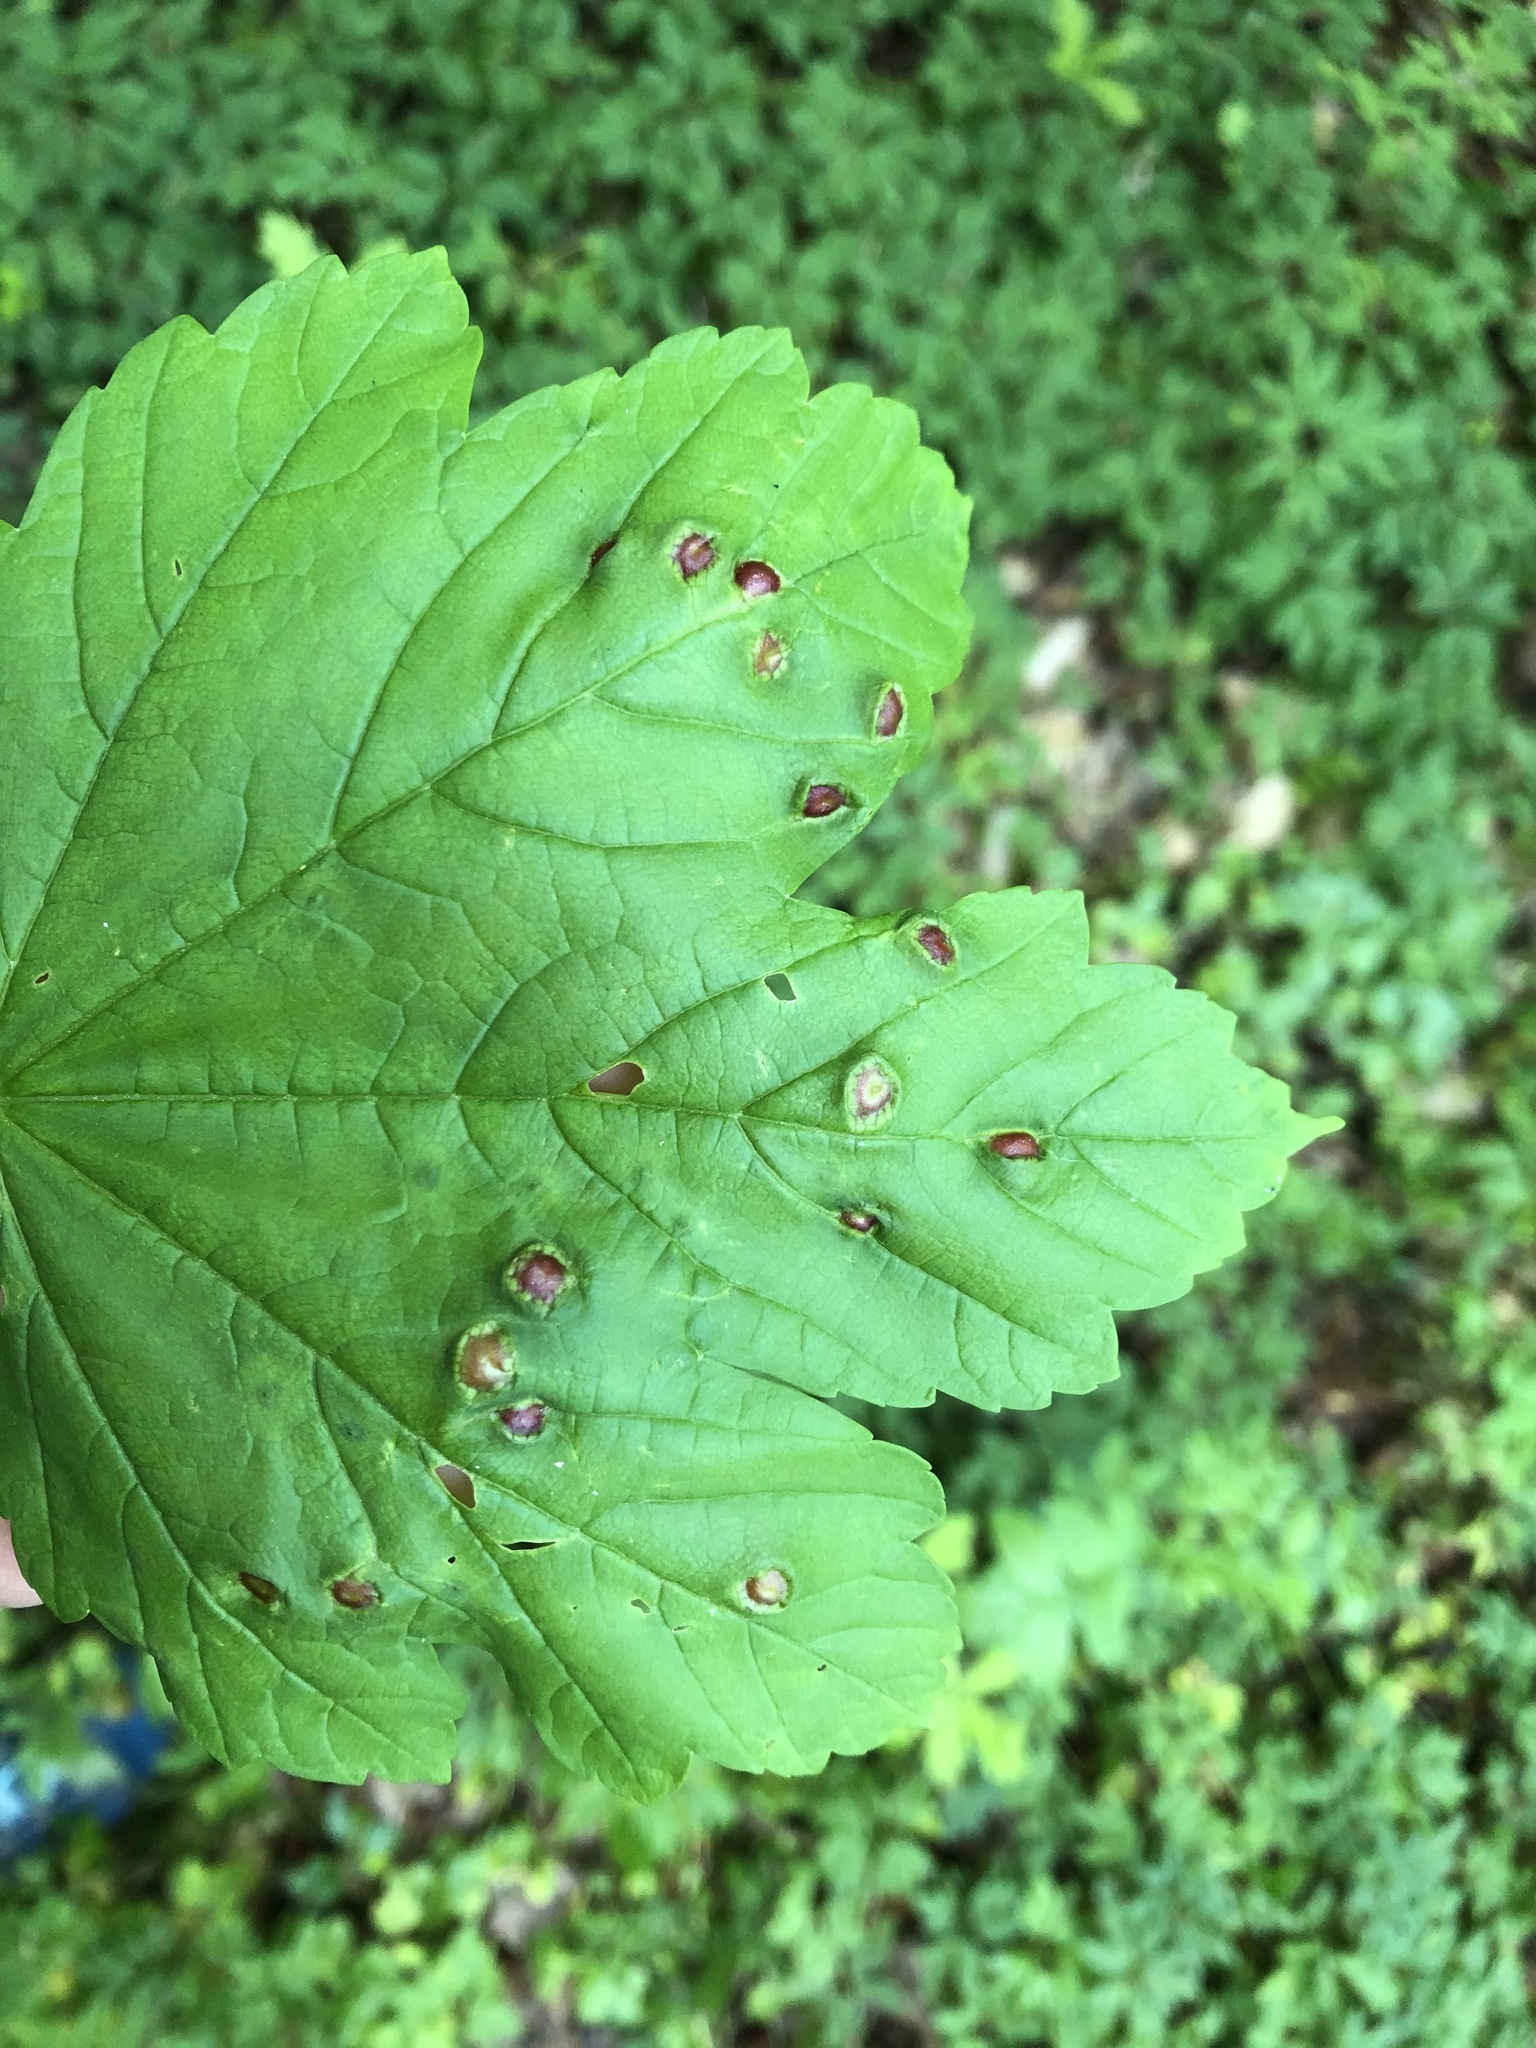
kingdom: Animalia
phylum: Arthropoda
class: Insecta
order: Hymenoptera
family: Cynipidae
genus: Pediaspis
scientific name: Pediaspis aceris
